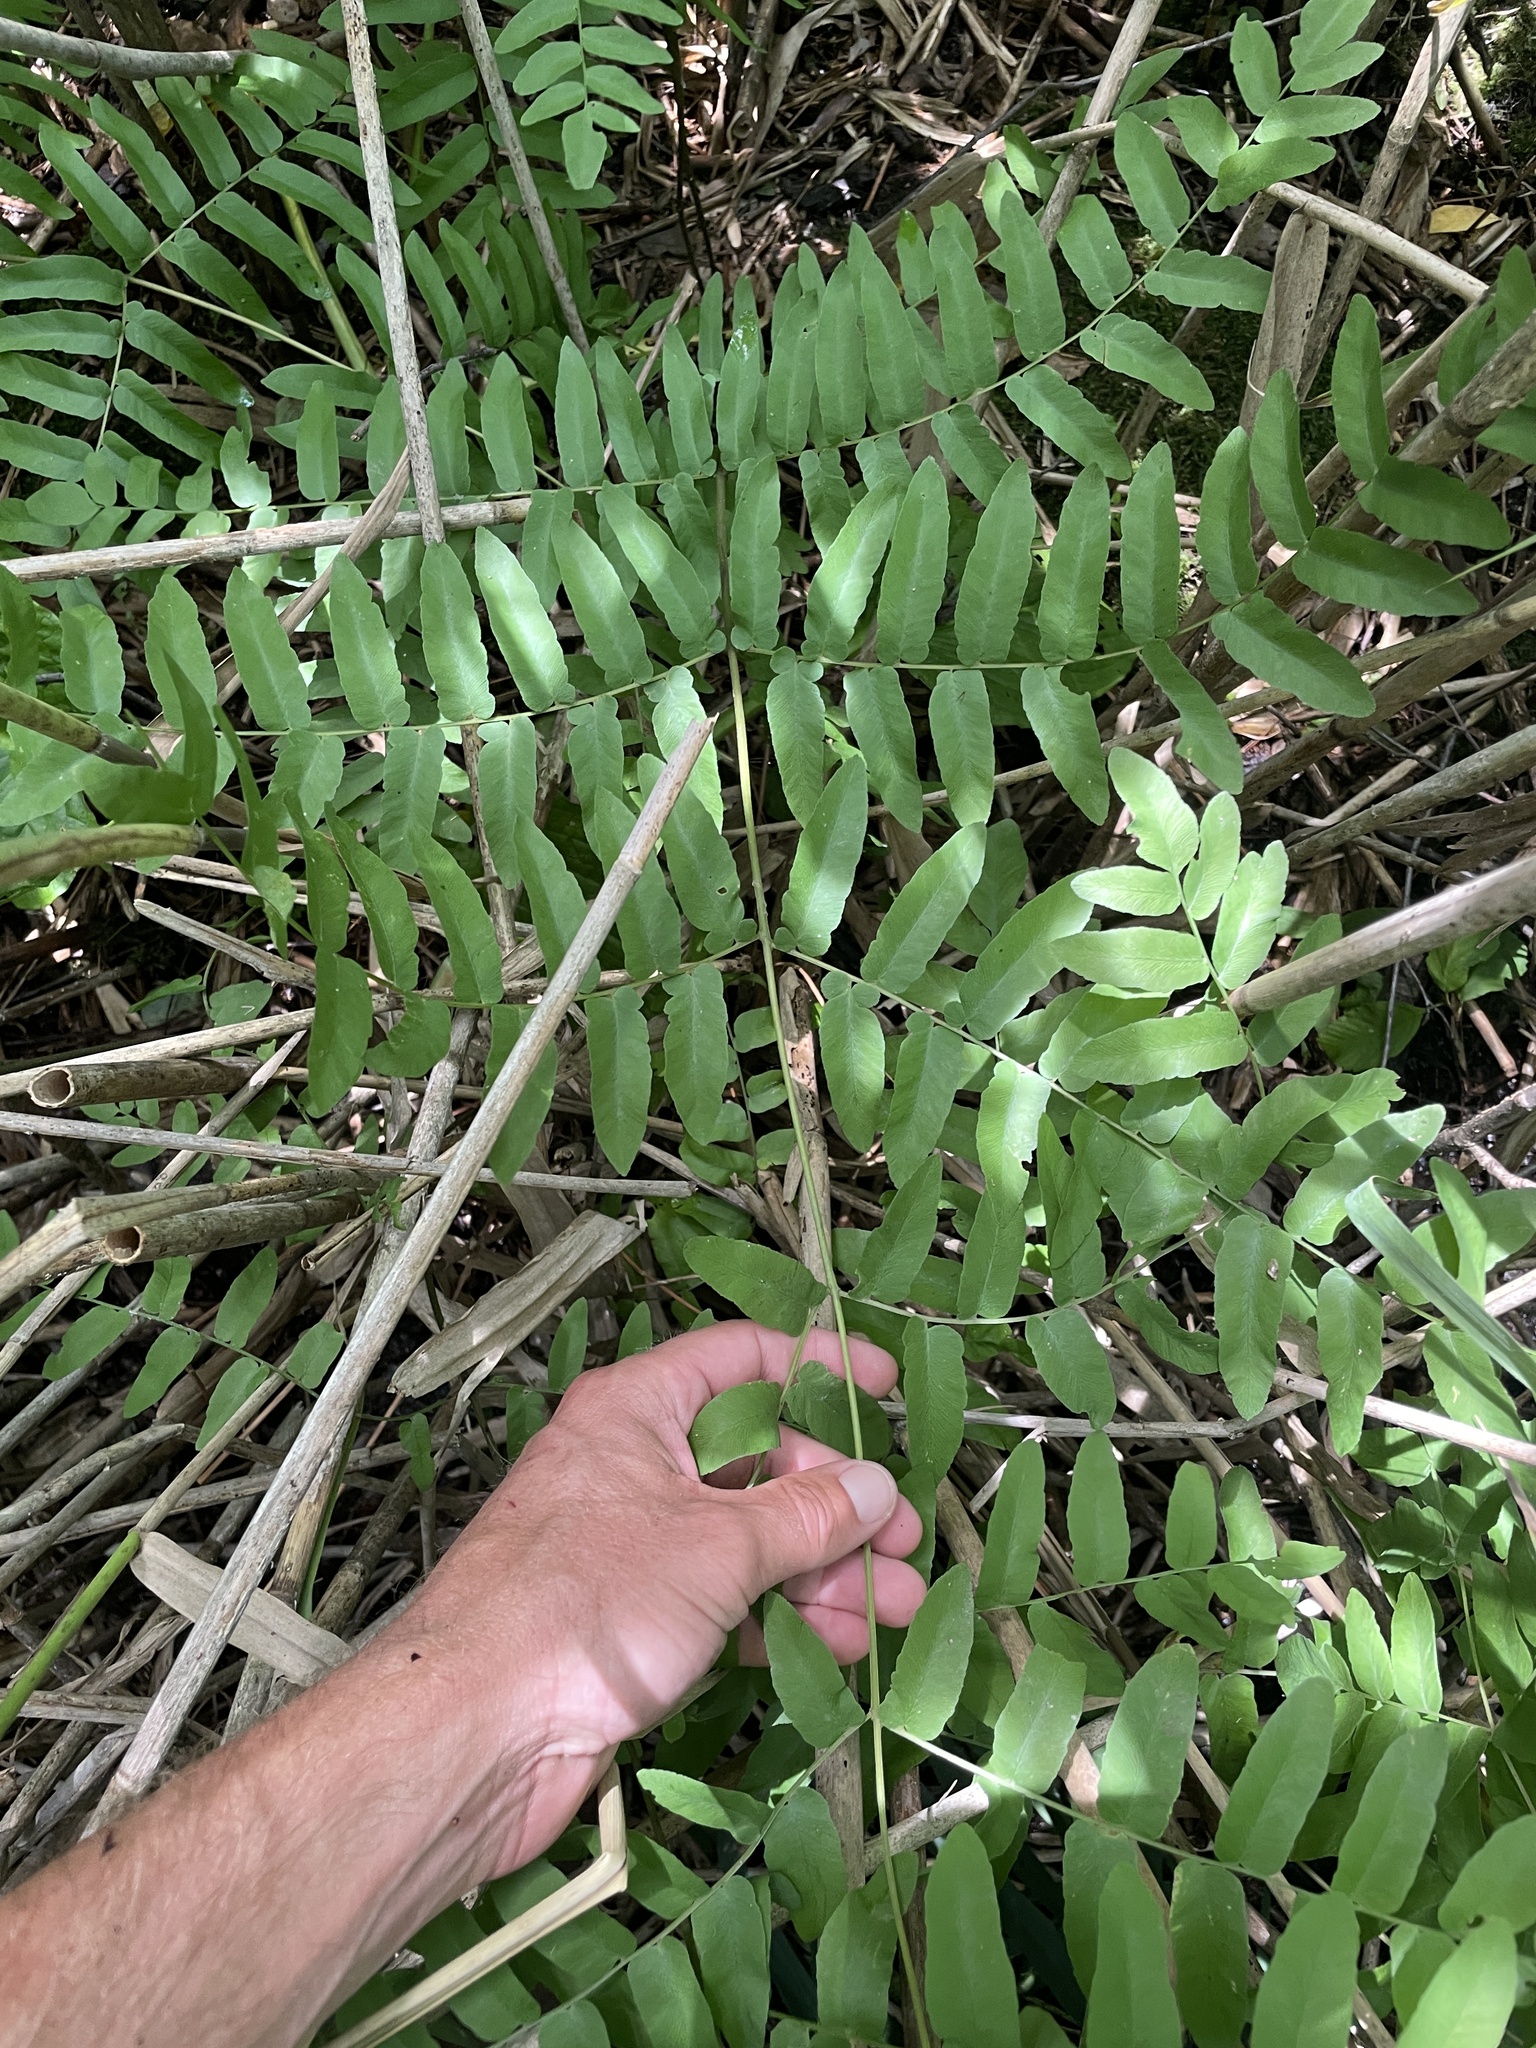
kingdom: Plantae
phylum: Tracheophyta
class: Polypodiopsida
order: Osmundales
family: Osmundaceae
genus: Osmunda
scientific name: Osmunda spectabilis
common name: American royal fern
